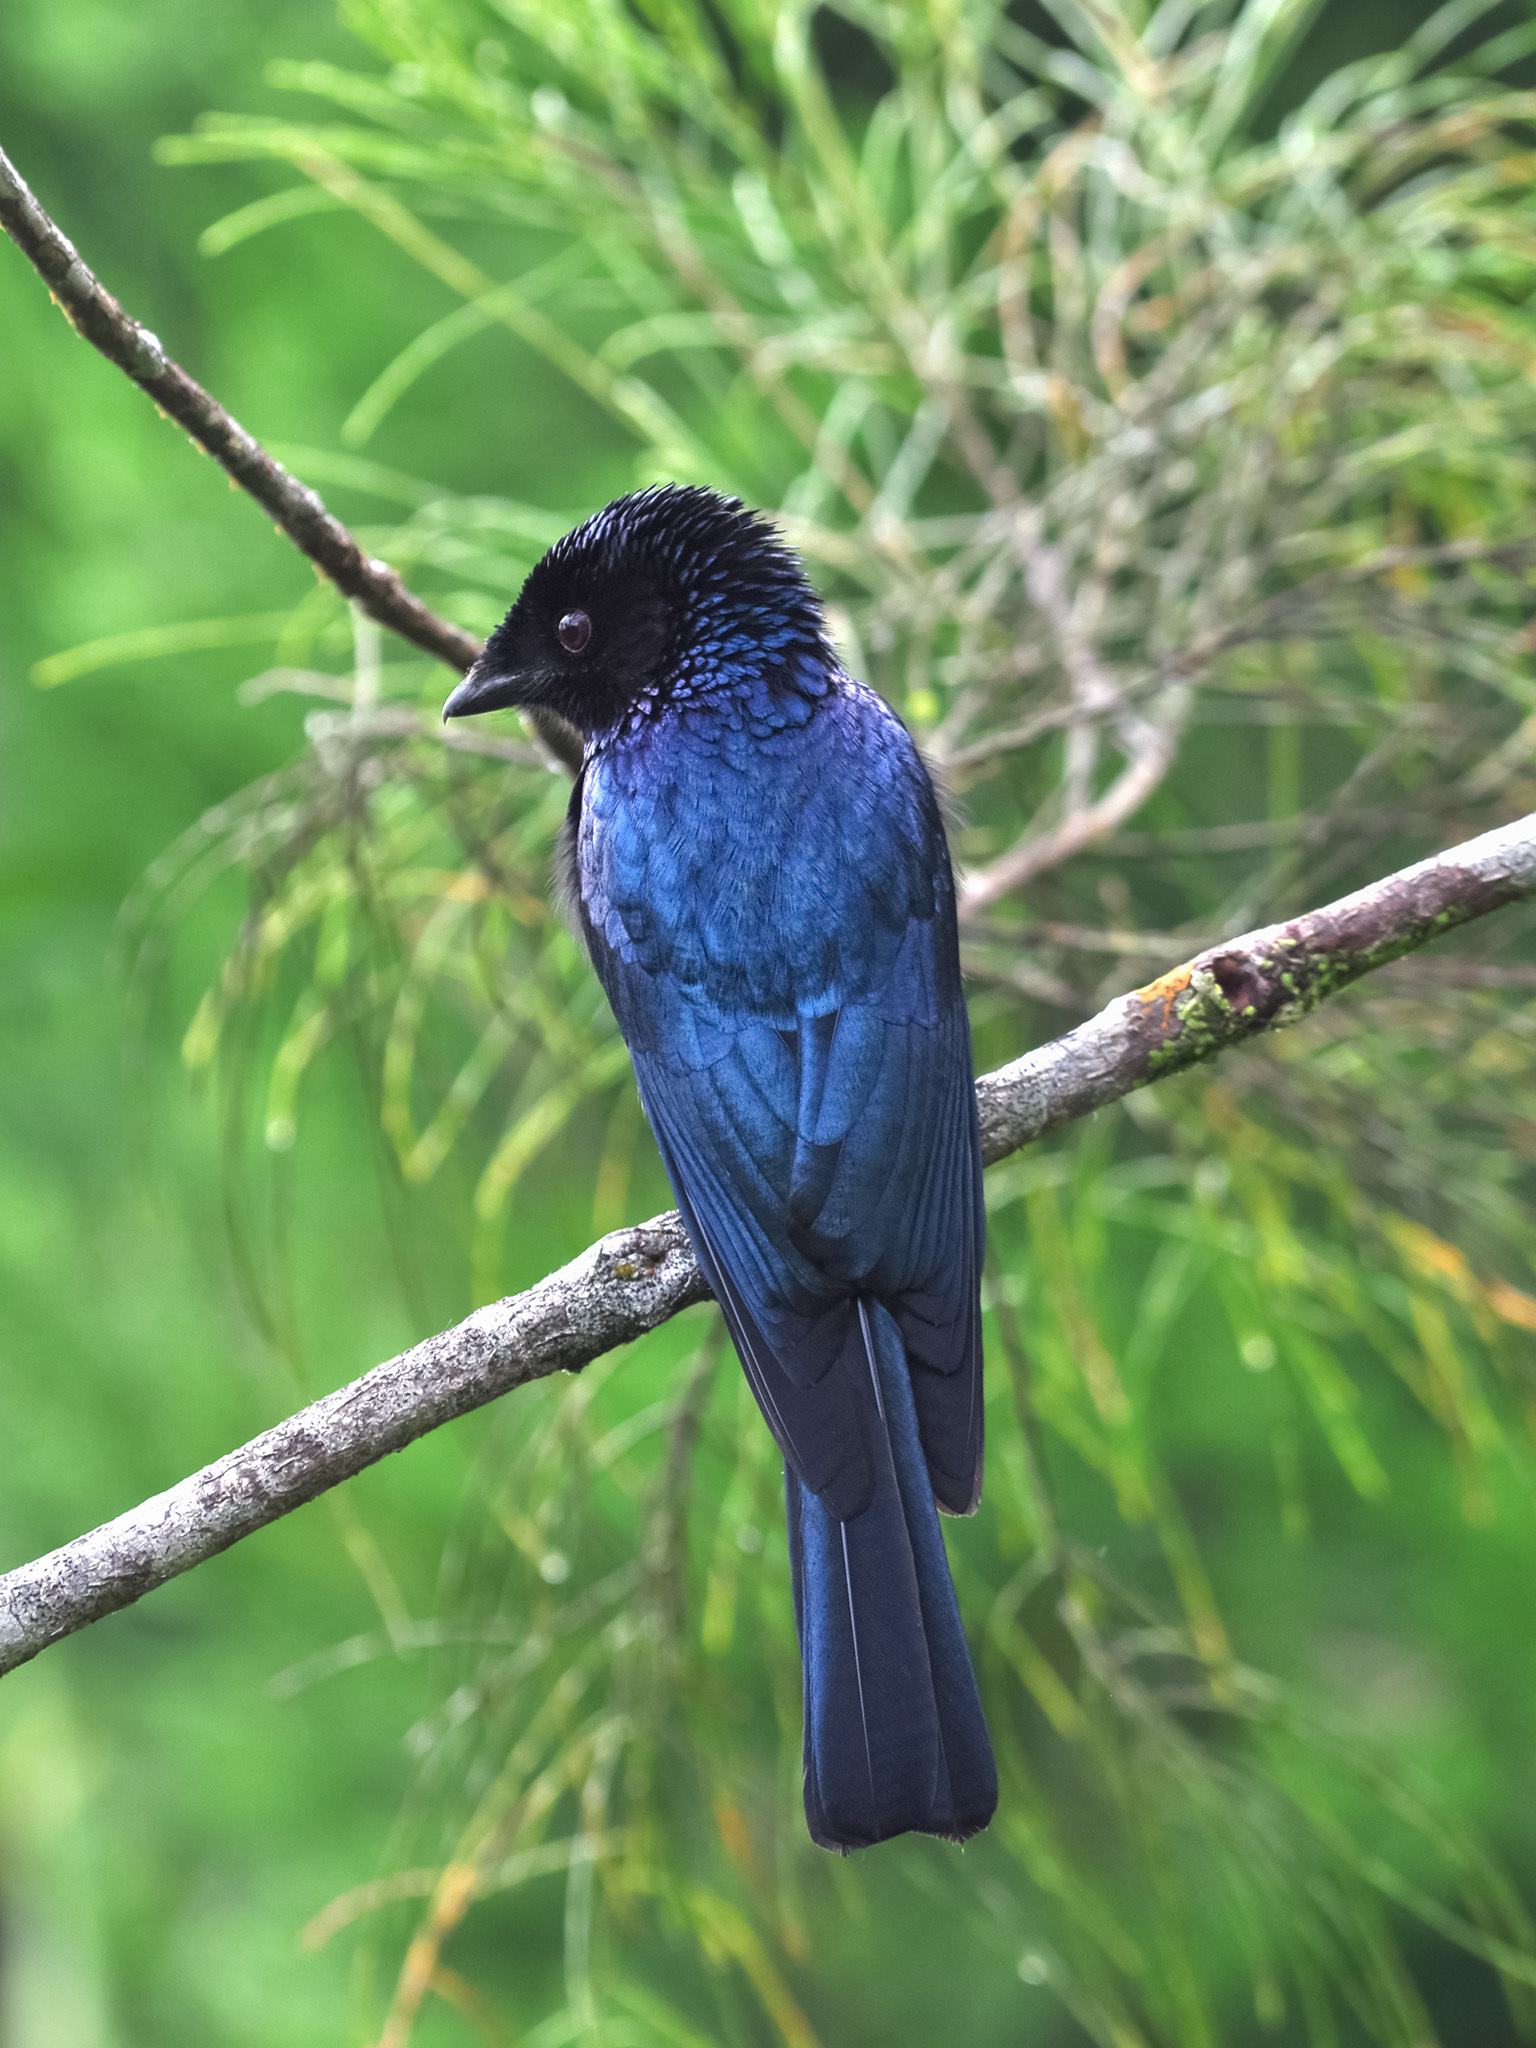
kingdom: Animalia
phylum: Chordata
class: Aves
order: Passeriformes
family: Dicruridae
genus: Dicrurus
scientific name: Dicrurus remifer
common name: Lesser racket-tailed drongo
